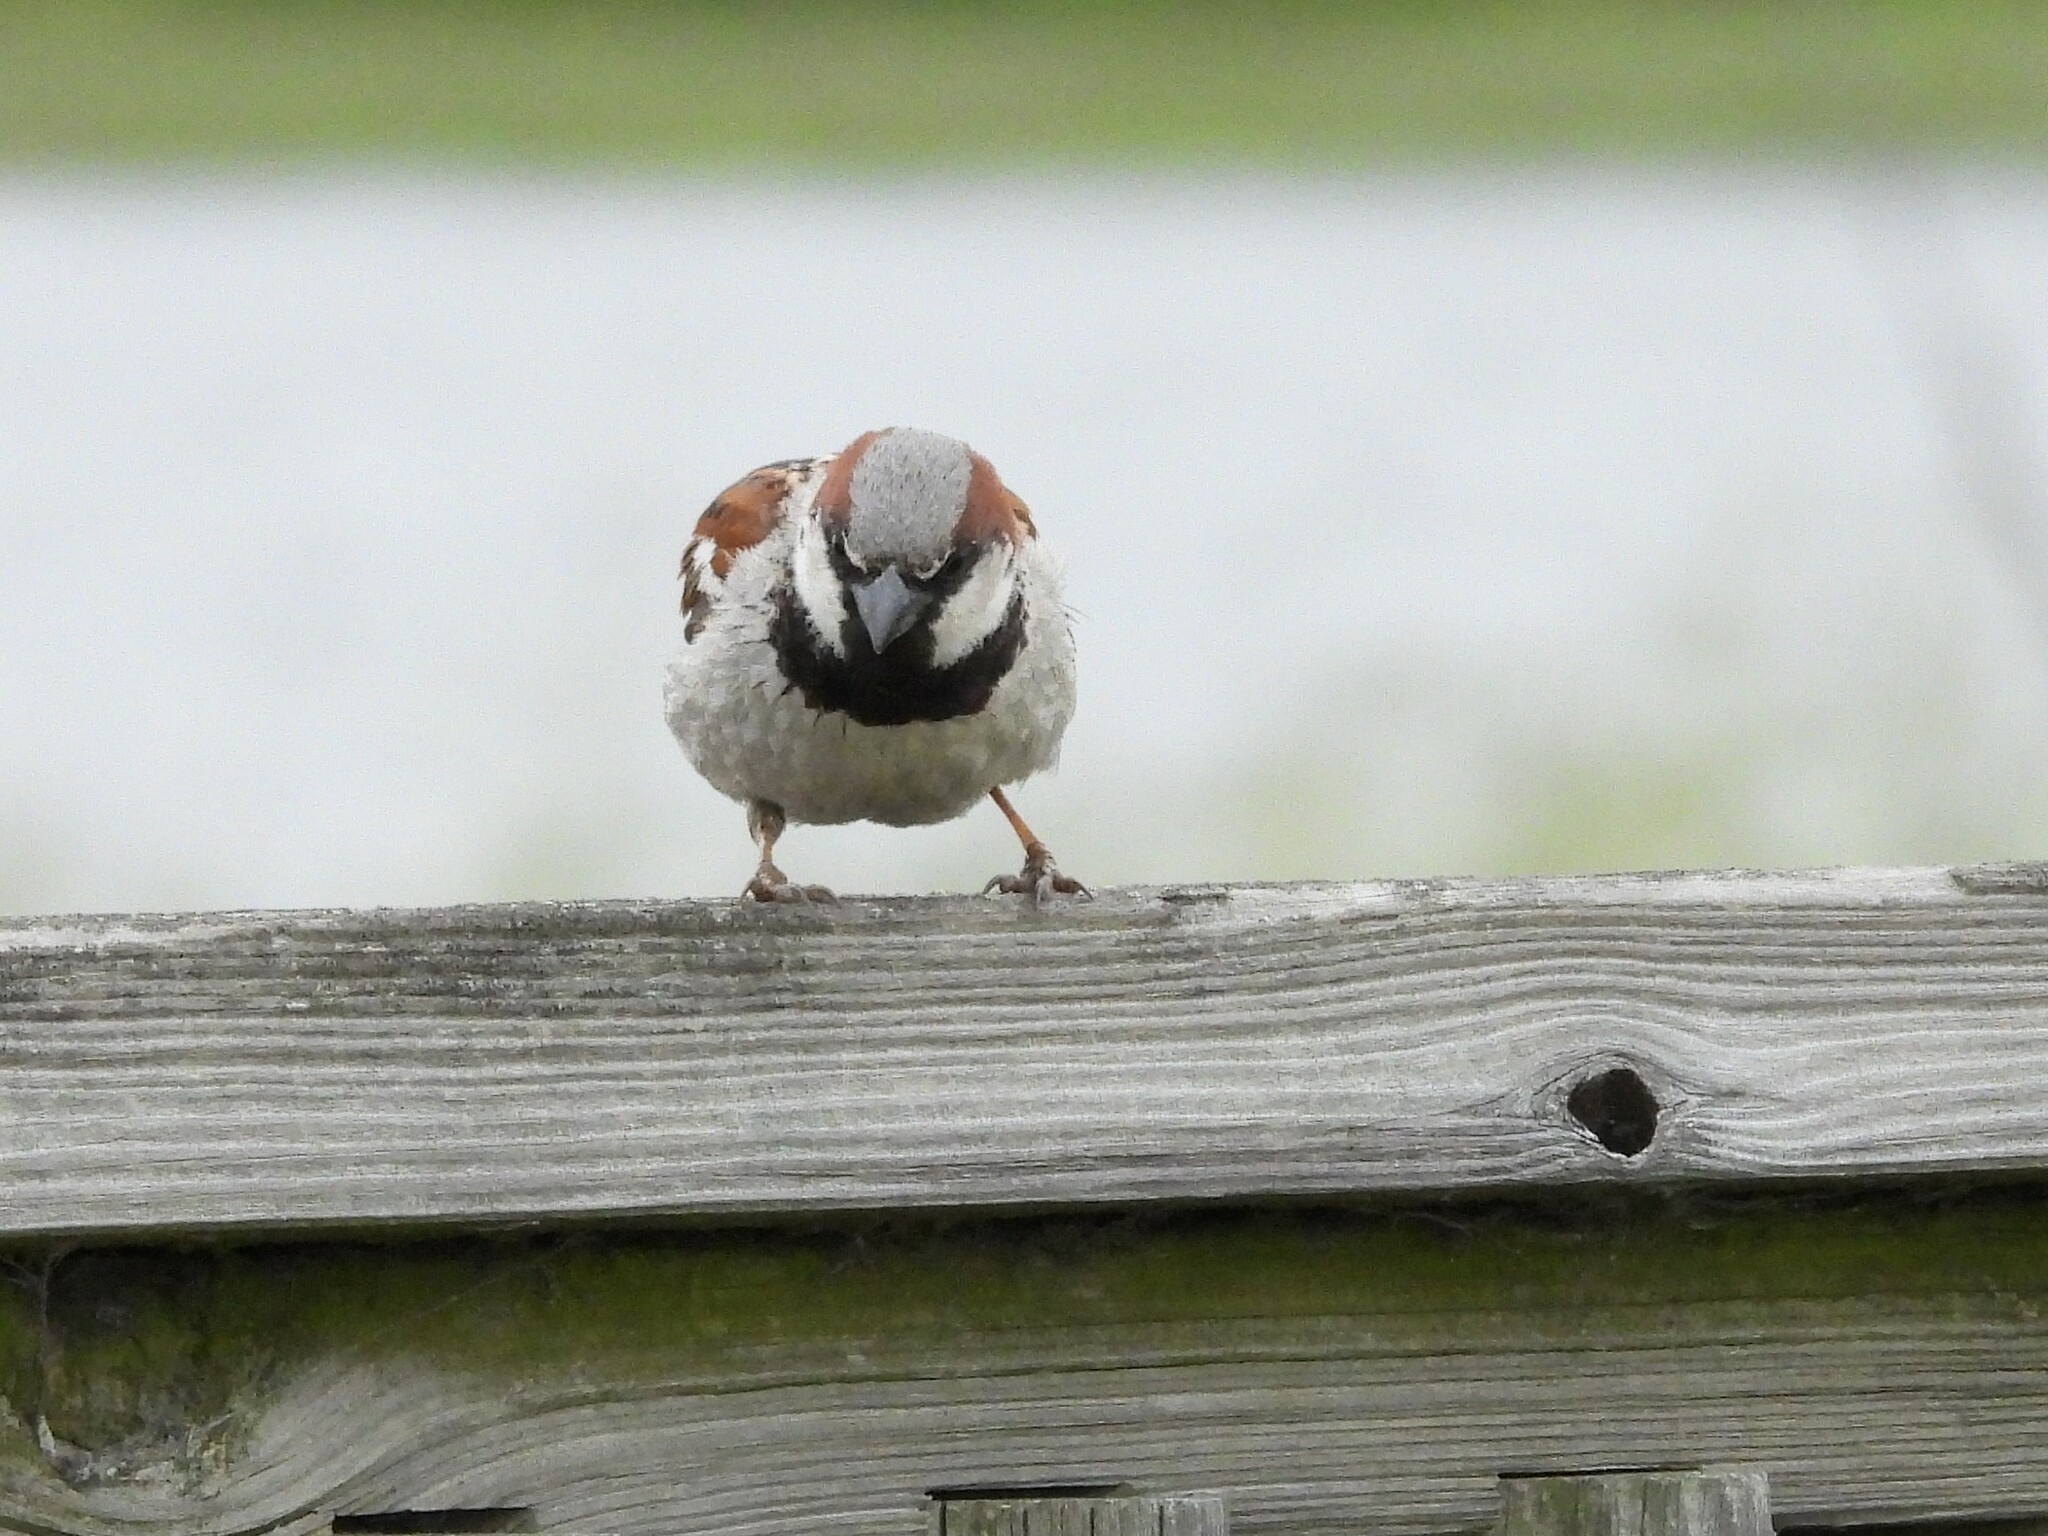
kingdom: Animalia
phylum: Chordata
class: Aves
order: Passeriformes
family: Passeridae
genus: Passer
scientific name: Passer domesticus
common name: House sparrow
